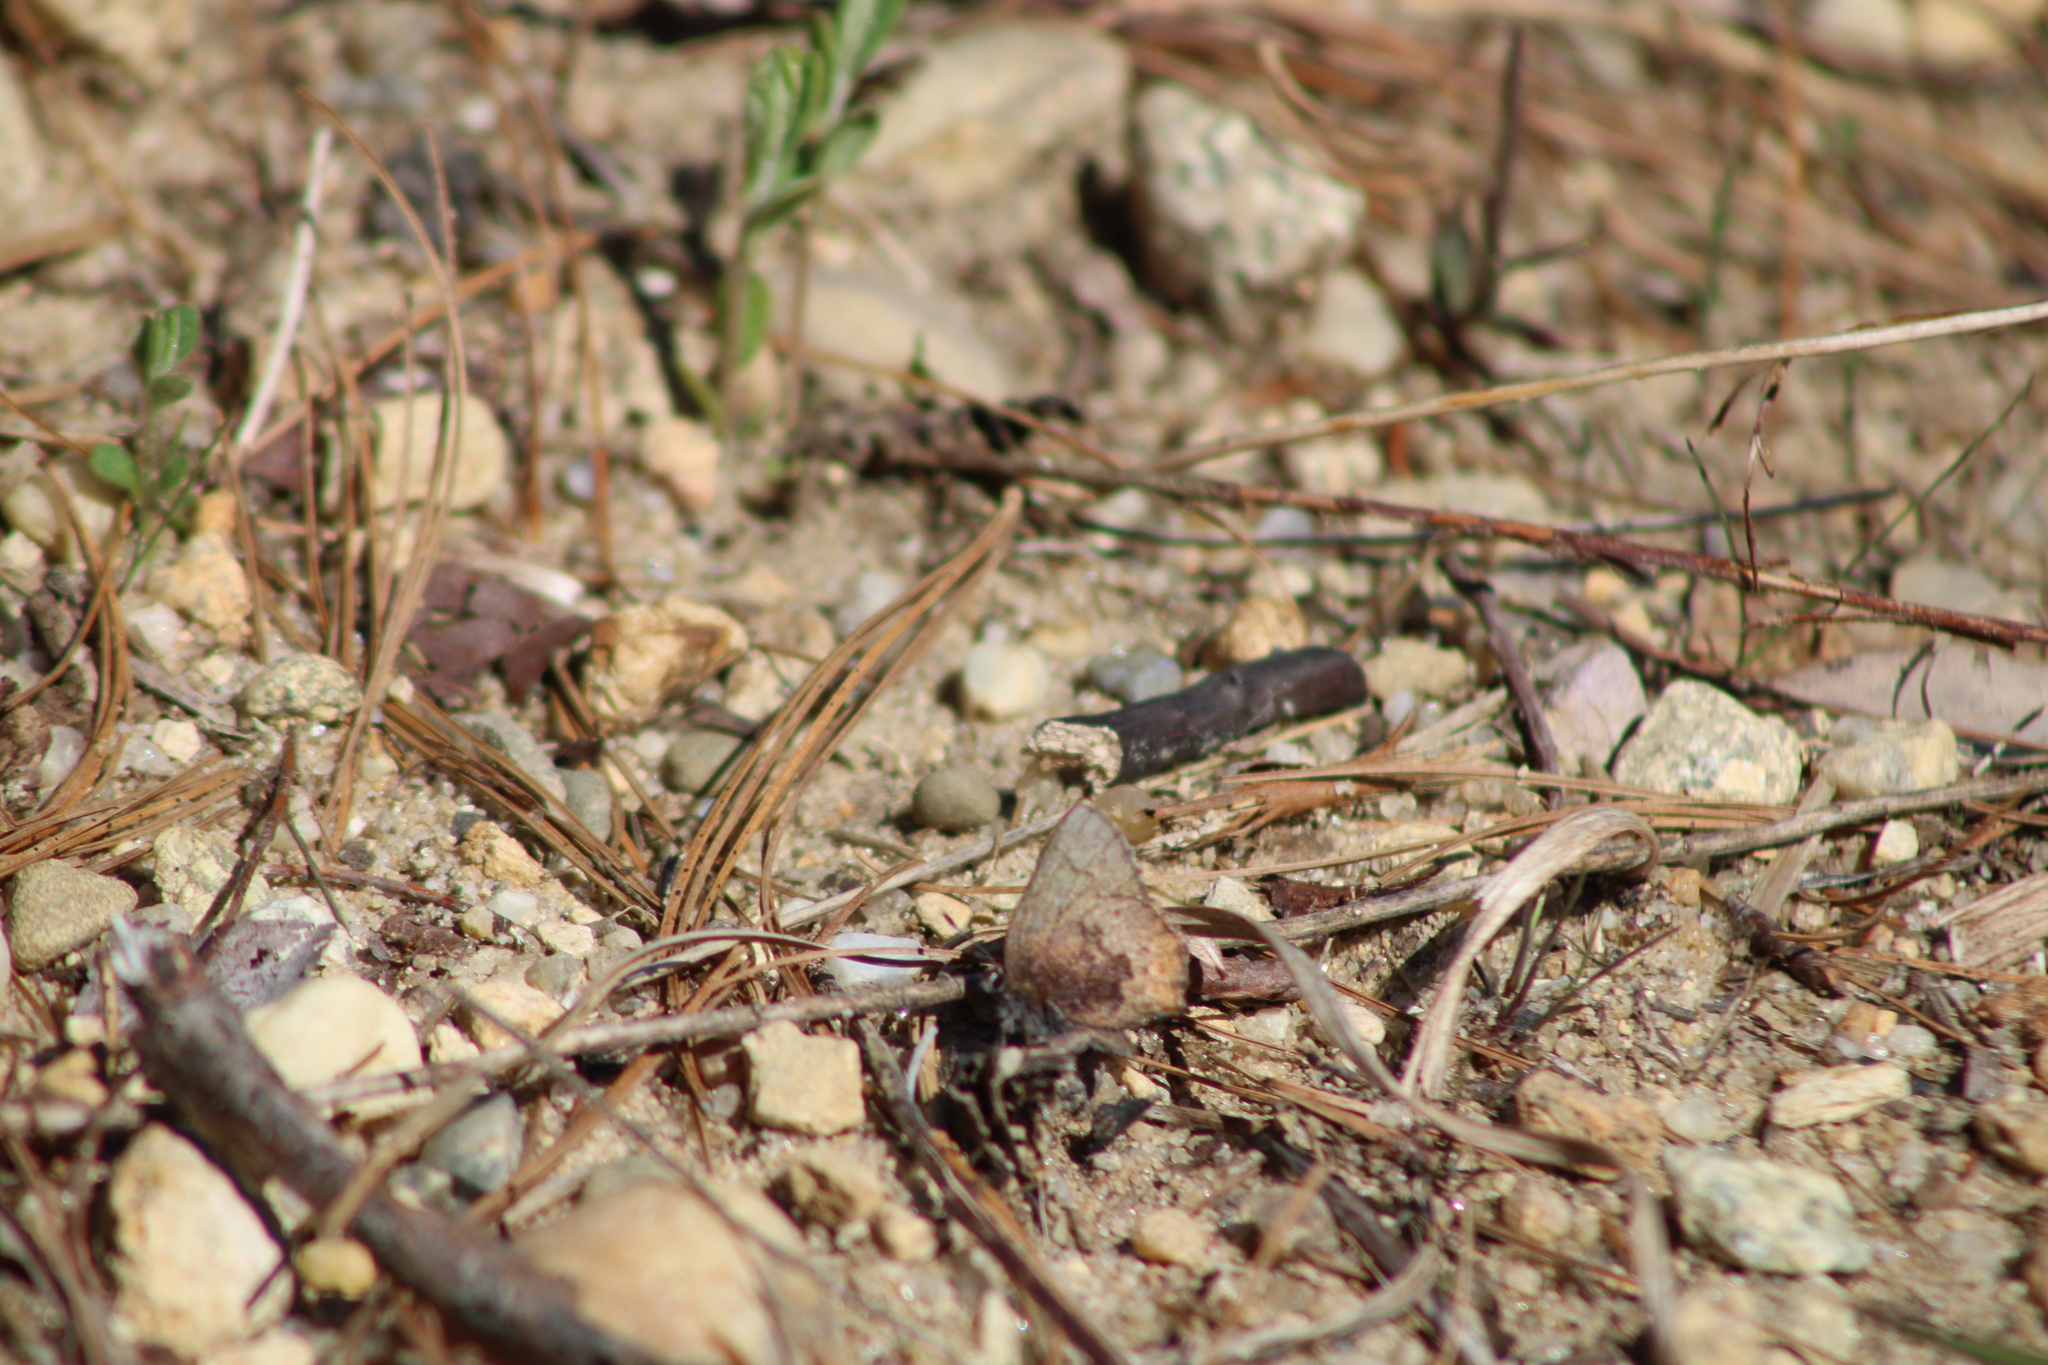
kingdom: Animalia
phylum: Arthropoda
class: Insecta
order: Lepidoptera
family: Lycaenidae
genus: Incisalia
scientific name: Incisalia irioides
